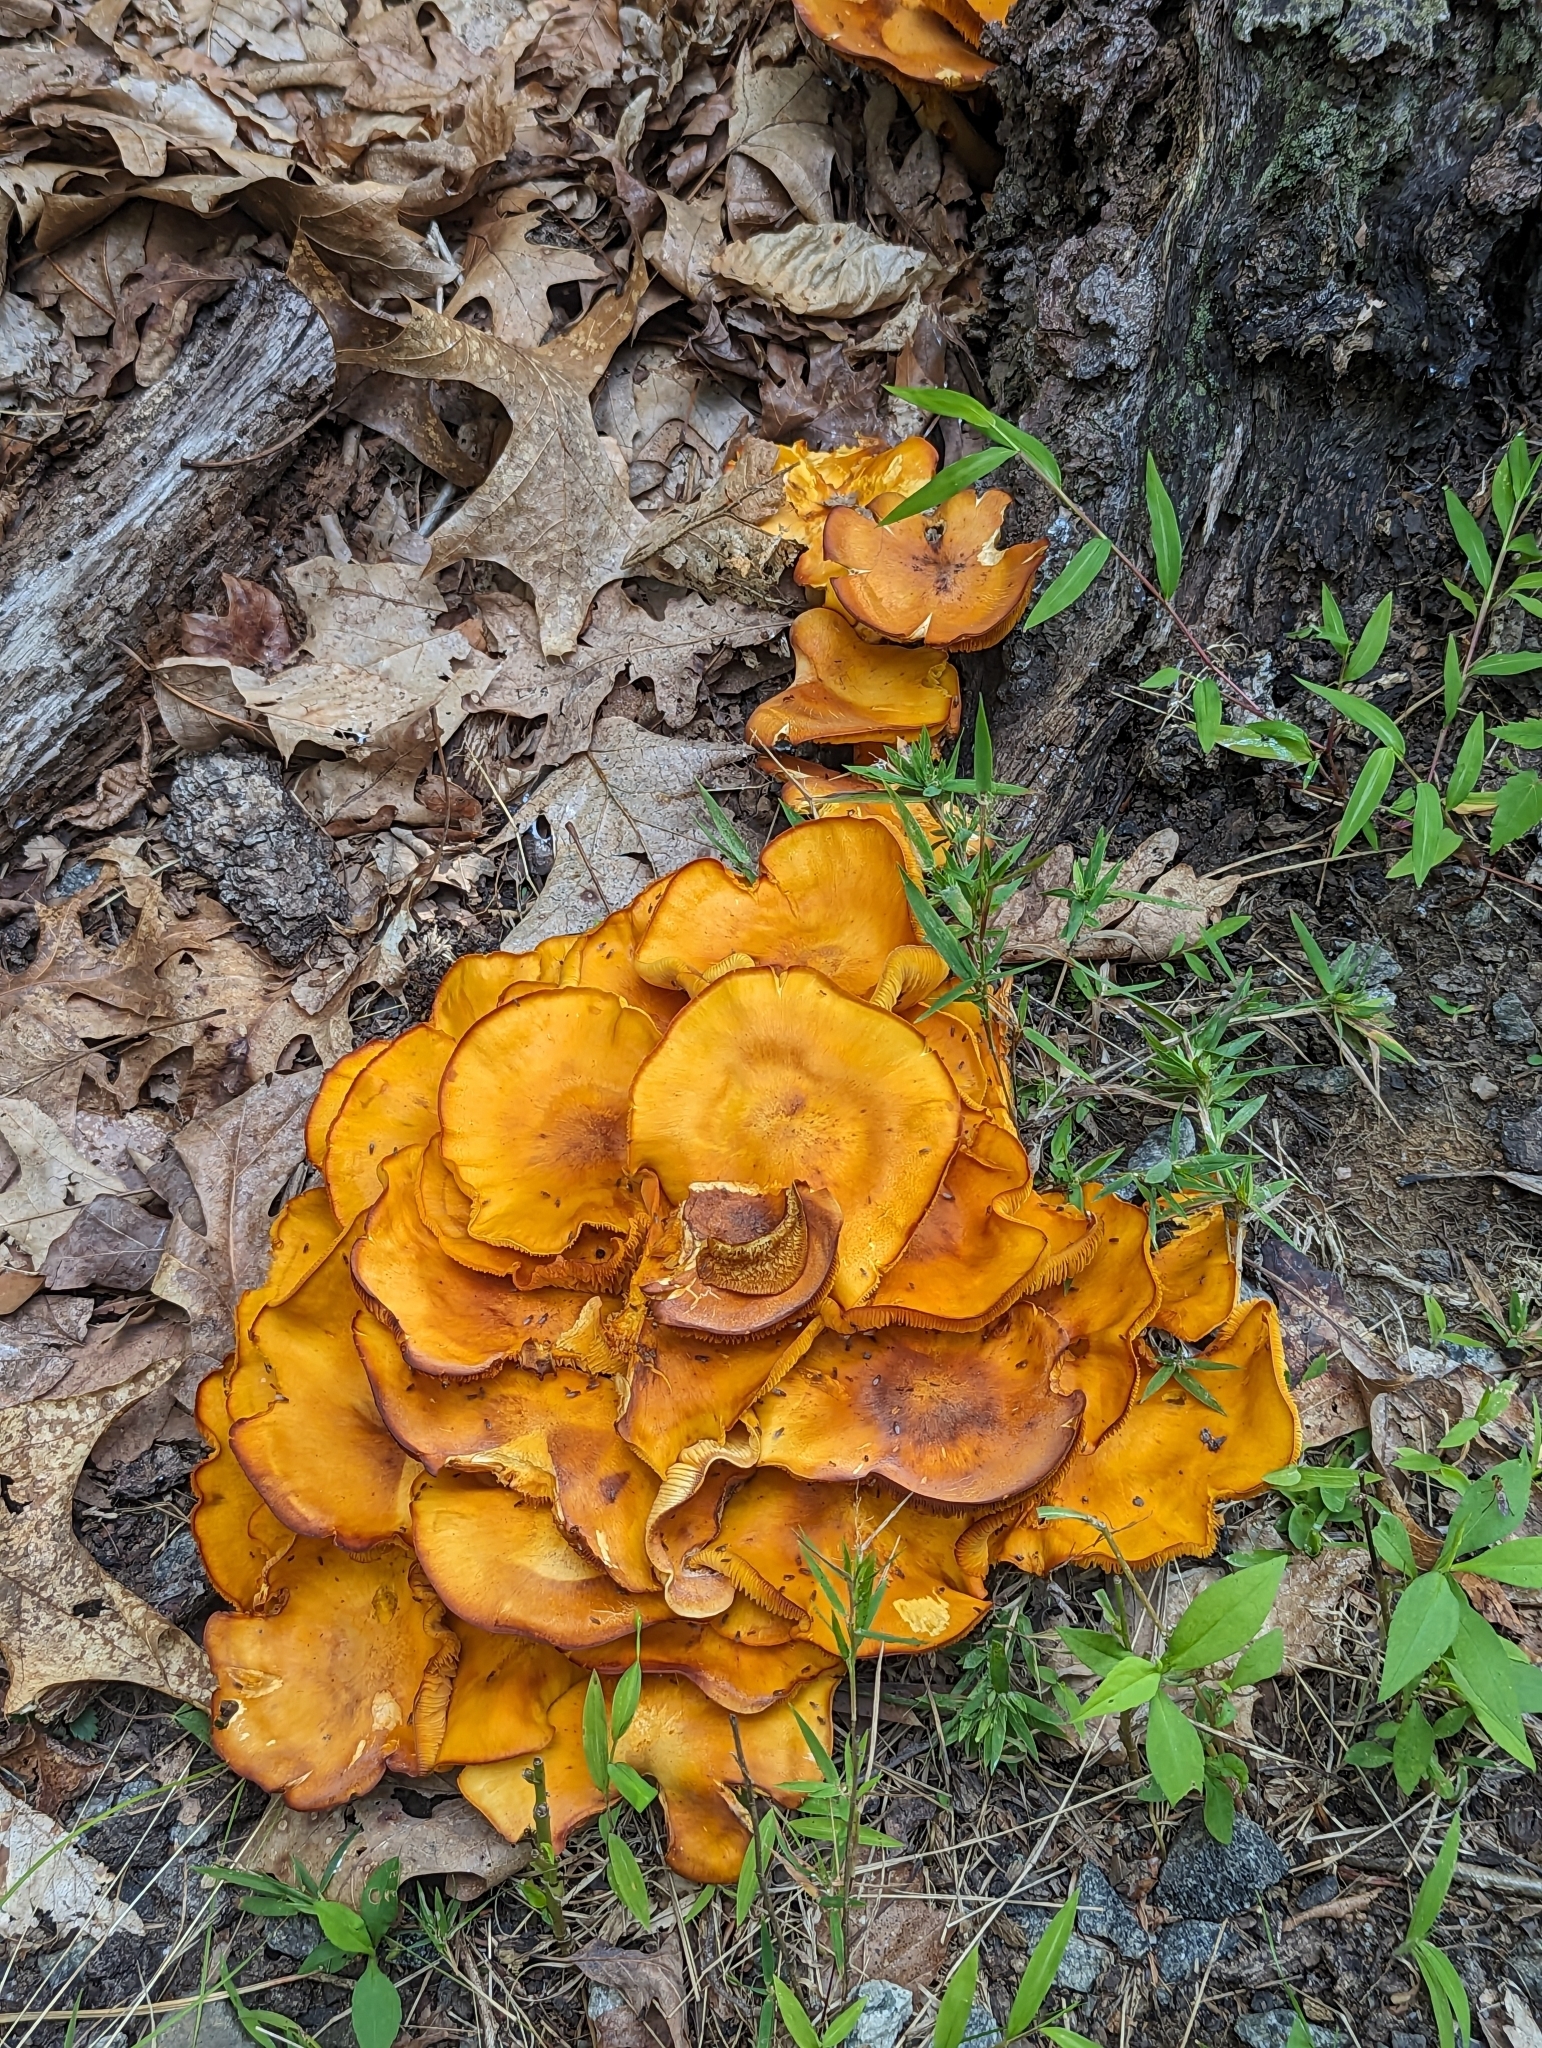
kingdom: Fungi
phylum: Basidiomycota
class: Agaricomycetes
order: Agaricales
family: Omphalotaceae
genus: Omphalotus
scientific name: Omphalotus illudens
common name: Jack o lantern
